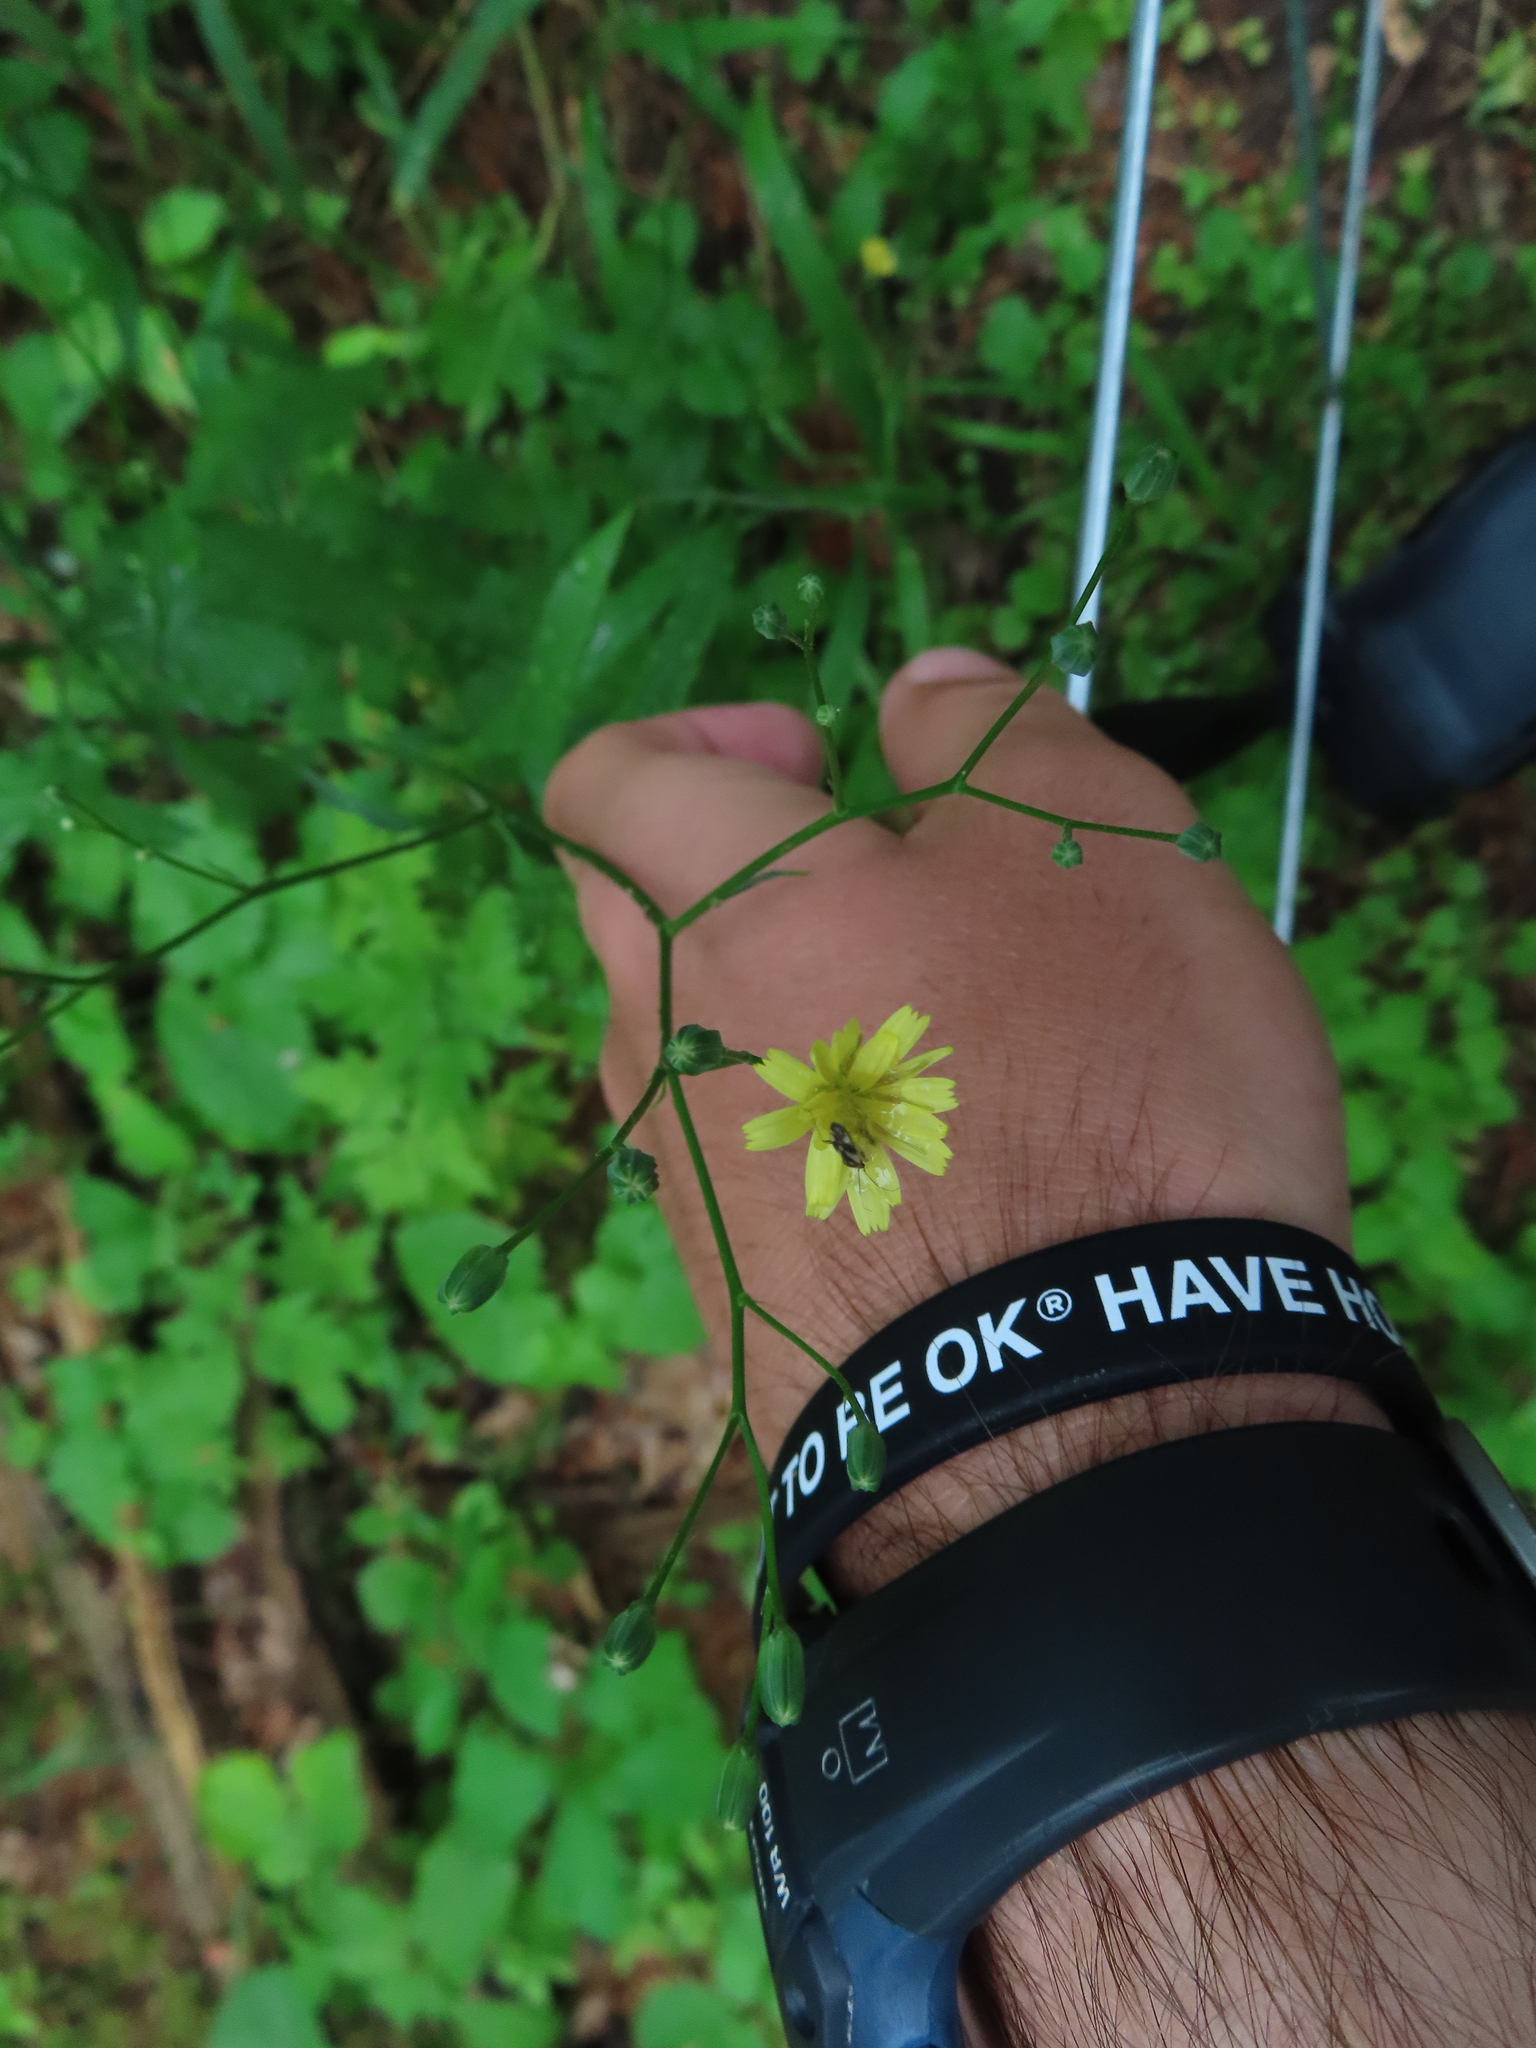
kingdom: Plantae
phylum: Tracheophyta
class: Magnoliopsida
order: Asterales
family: Asteraceae
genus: Lapsana
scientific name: Lapsana communis
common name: Nipplewort
